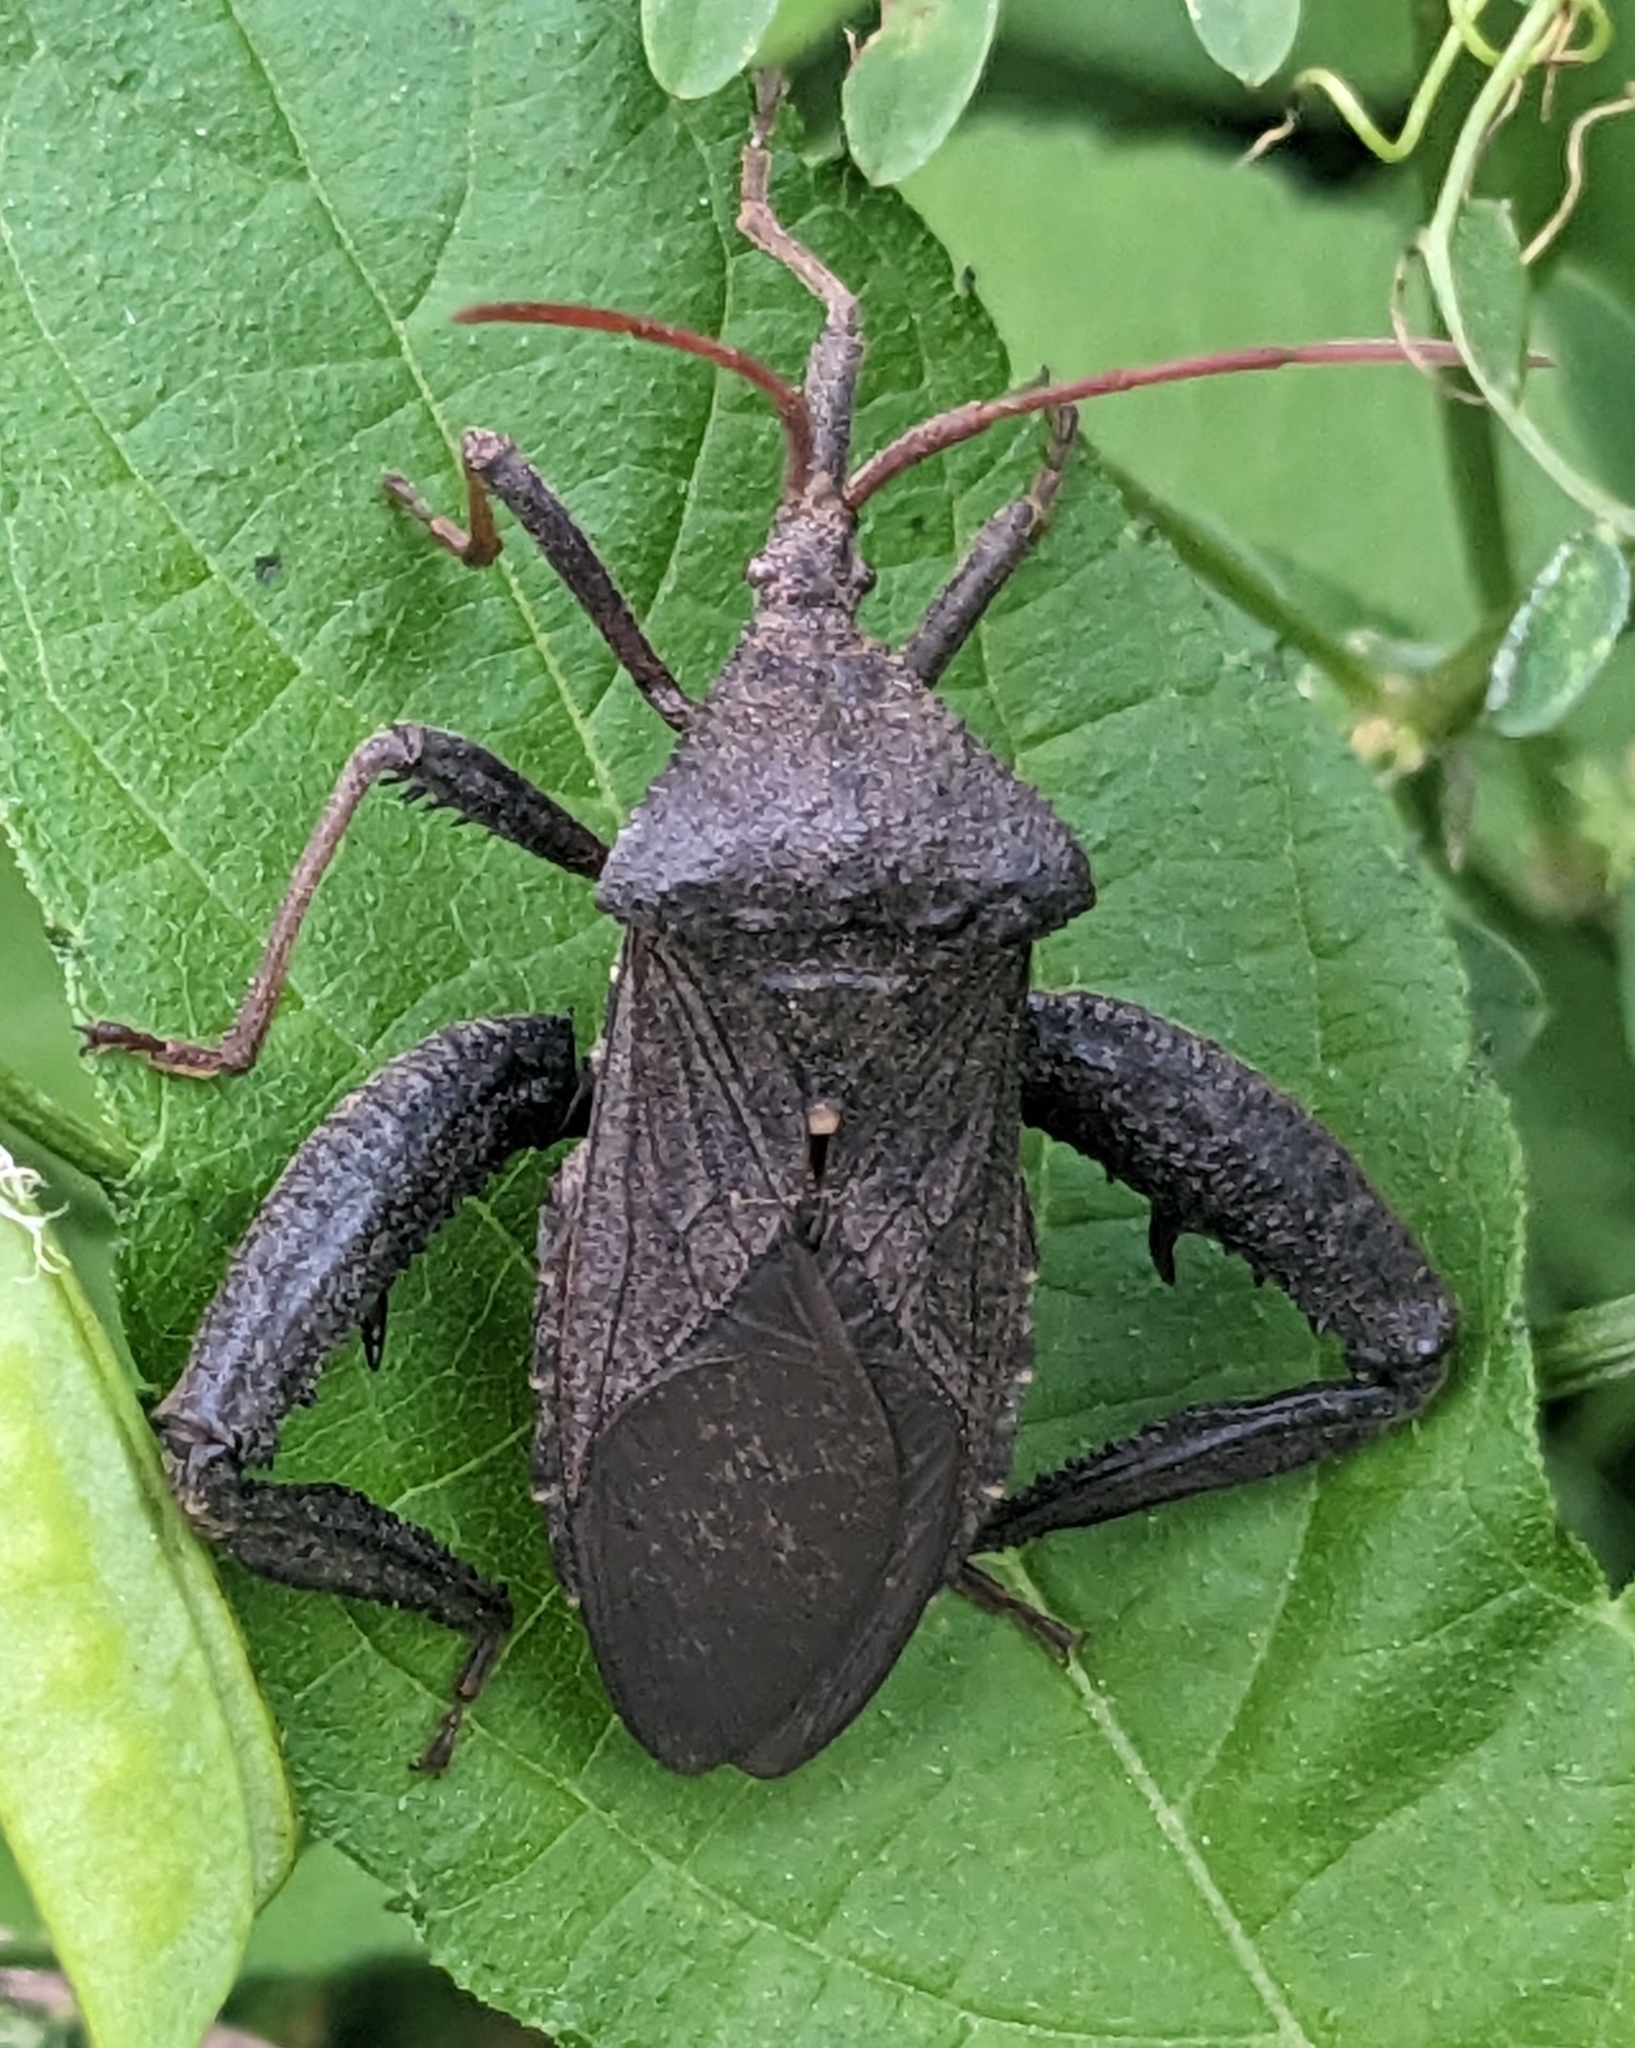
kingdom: Animalia
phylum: Arthropoda
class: Insecta
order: Hemiptera
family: Coreidae
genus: Acanthocephala
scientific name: Acanthocephala femorata
